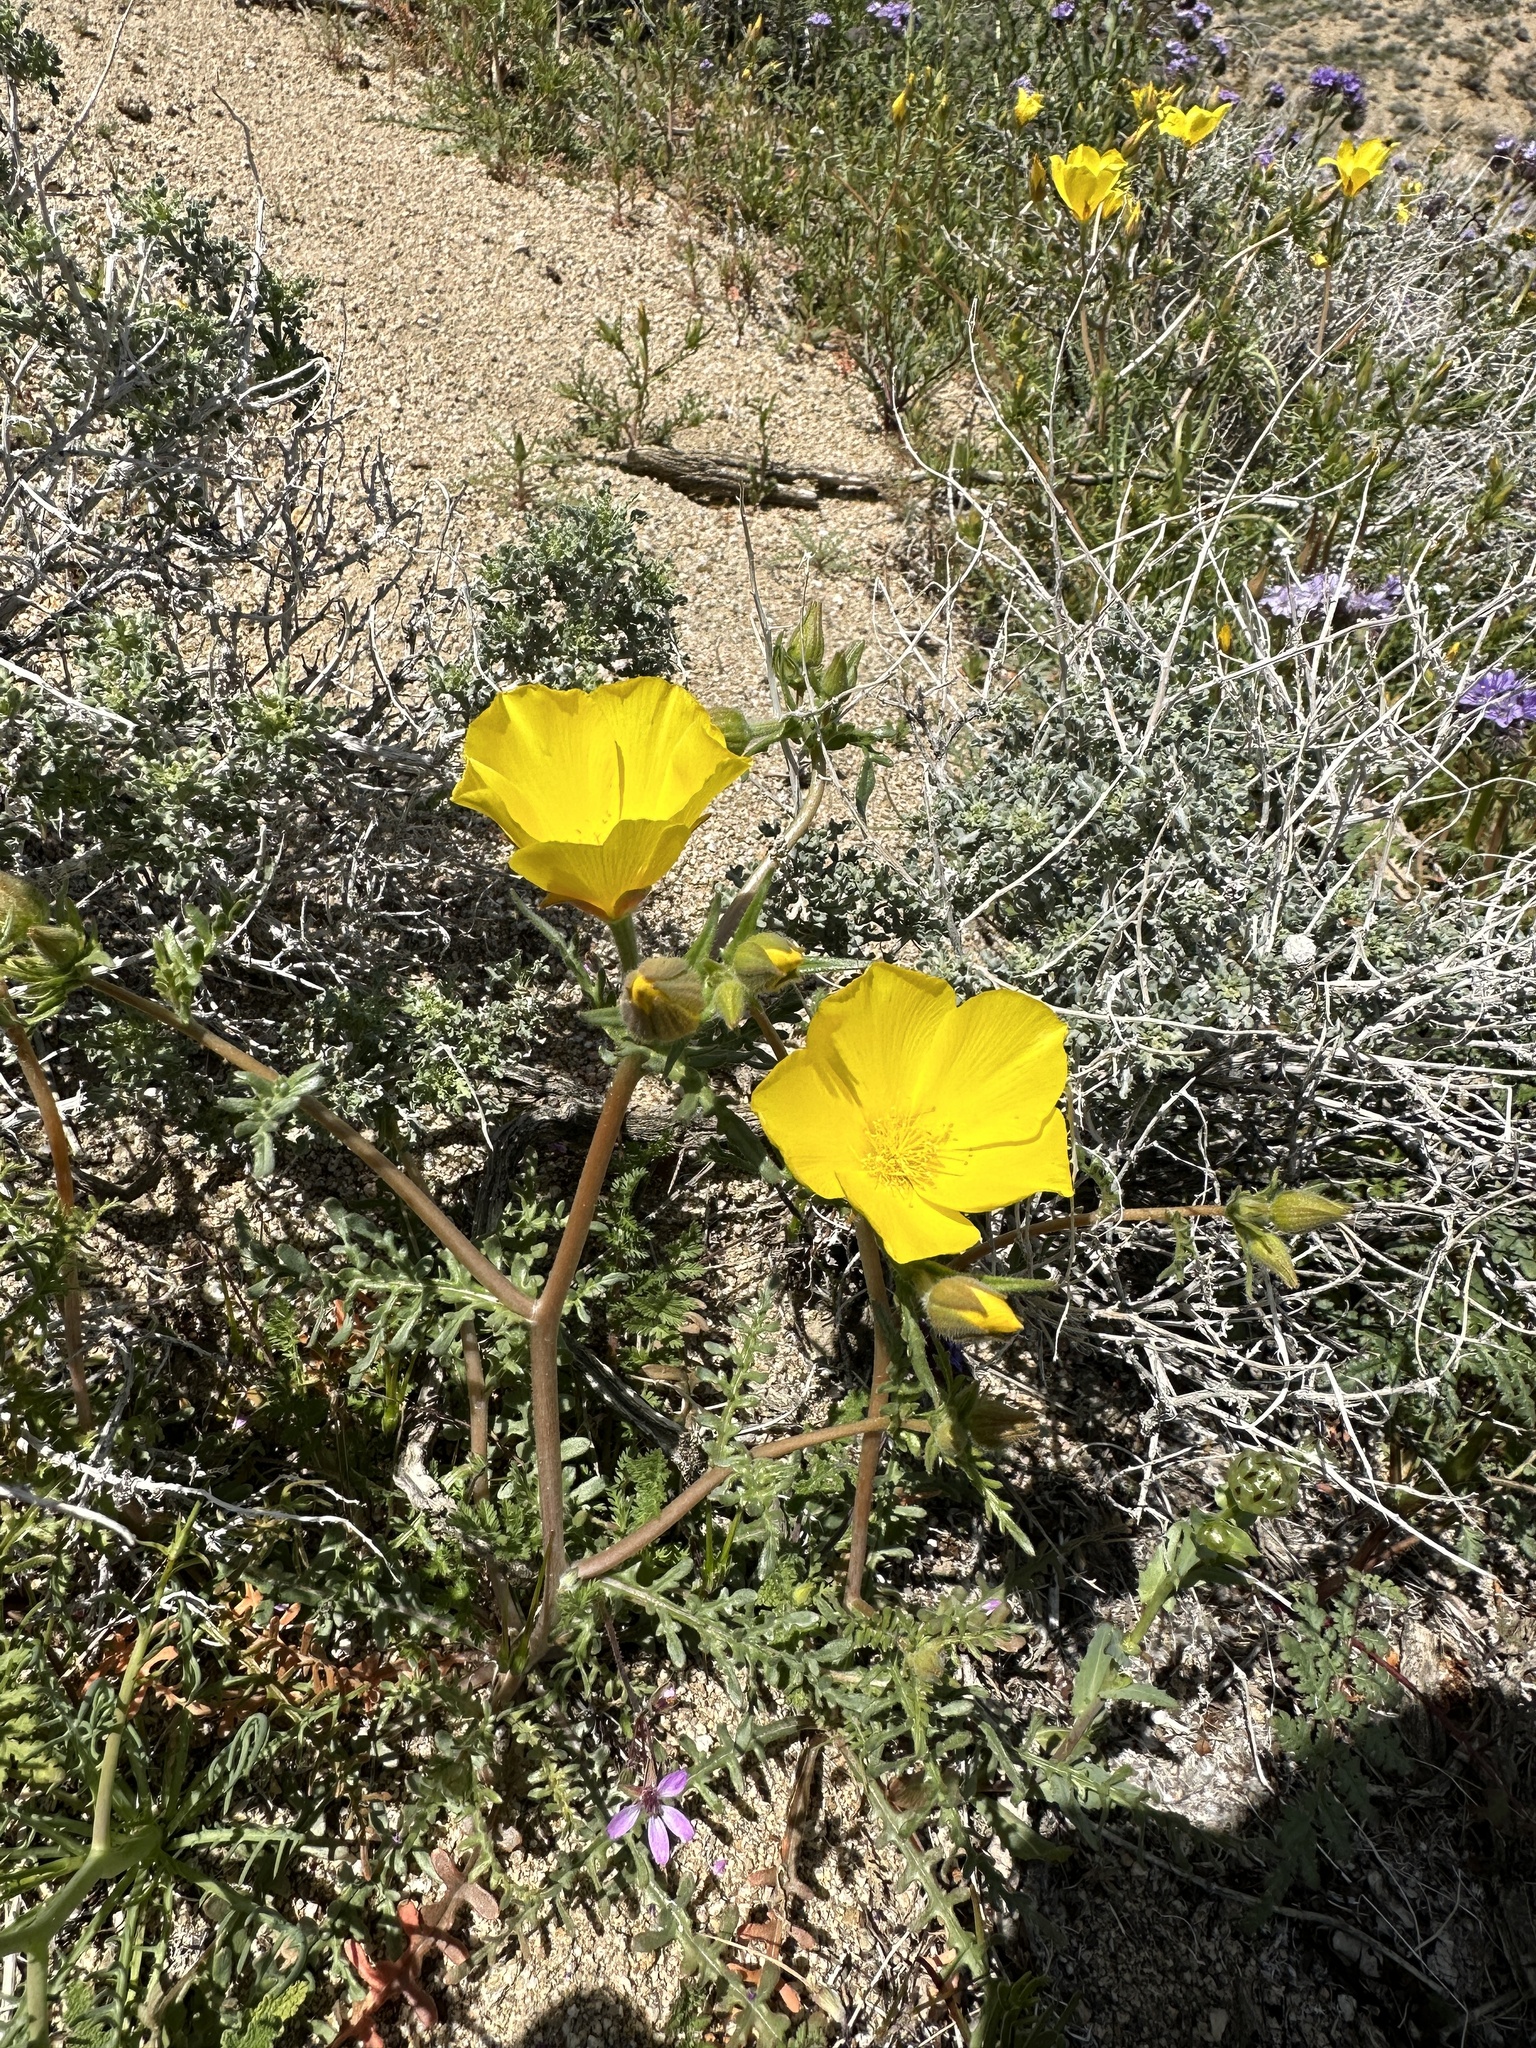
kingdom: Plantae
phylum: Tracheophyta
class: Magnoliopsida
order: Cornales
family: Loasaceae
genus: Mentzelia
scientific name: Mentzelia eremophila
